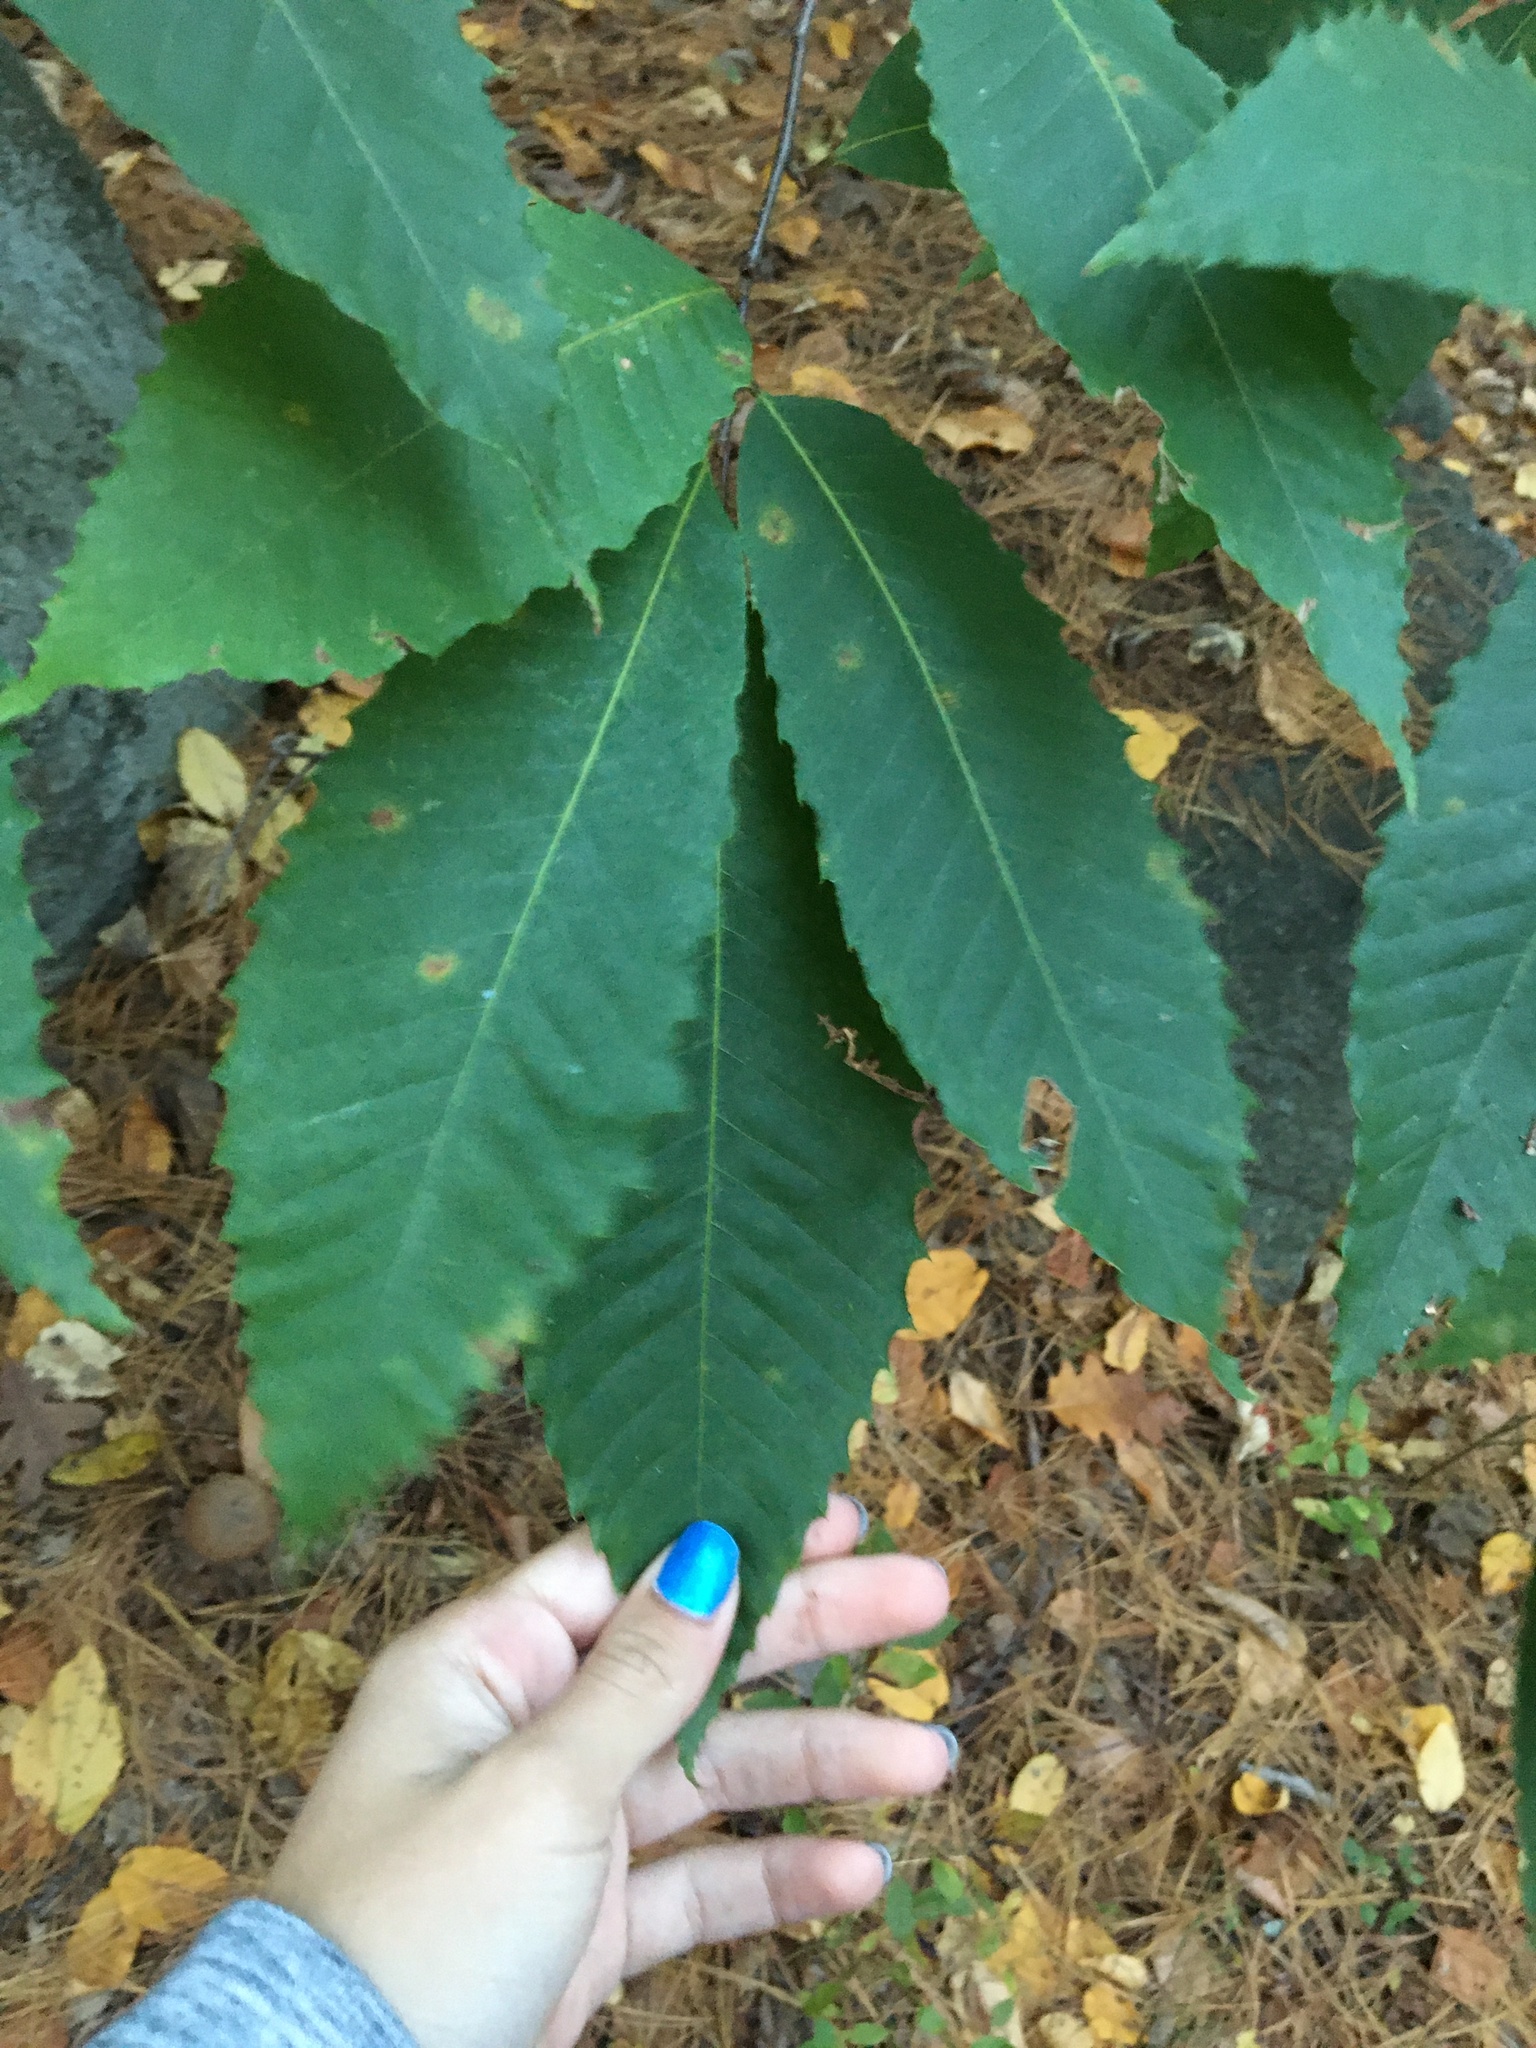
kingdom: Plantae
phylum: Tracheophyta
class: Magnoliopsida
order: Fagales
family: Fagaceae
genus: Castanea
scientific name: Castanea dentata
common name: American chestnut
